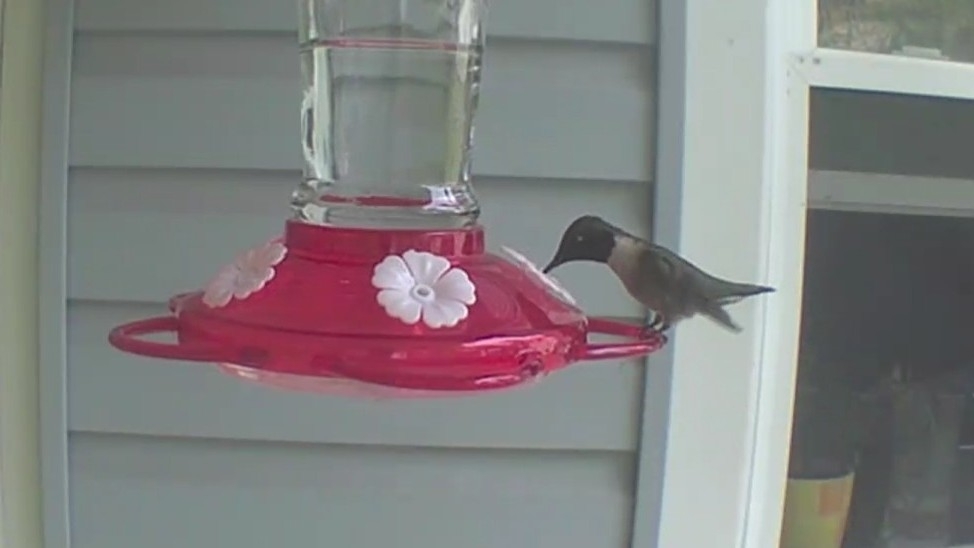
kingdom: Animalia
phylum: Chordata
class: Aves
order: Apodiformes
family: Trochilidae
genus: Archilochus
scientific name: Archilochus colubris
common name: Ruby-throated hummingbird
